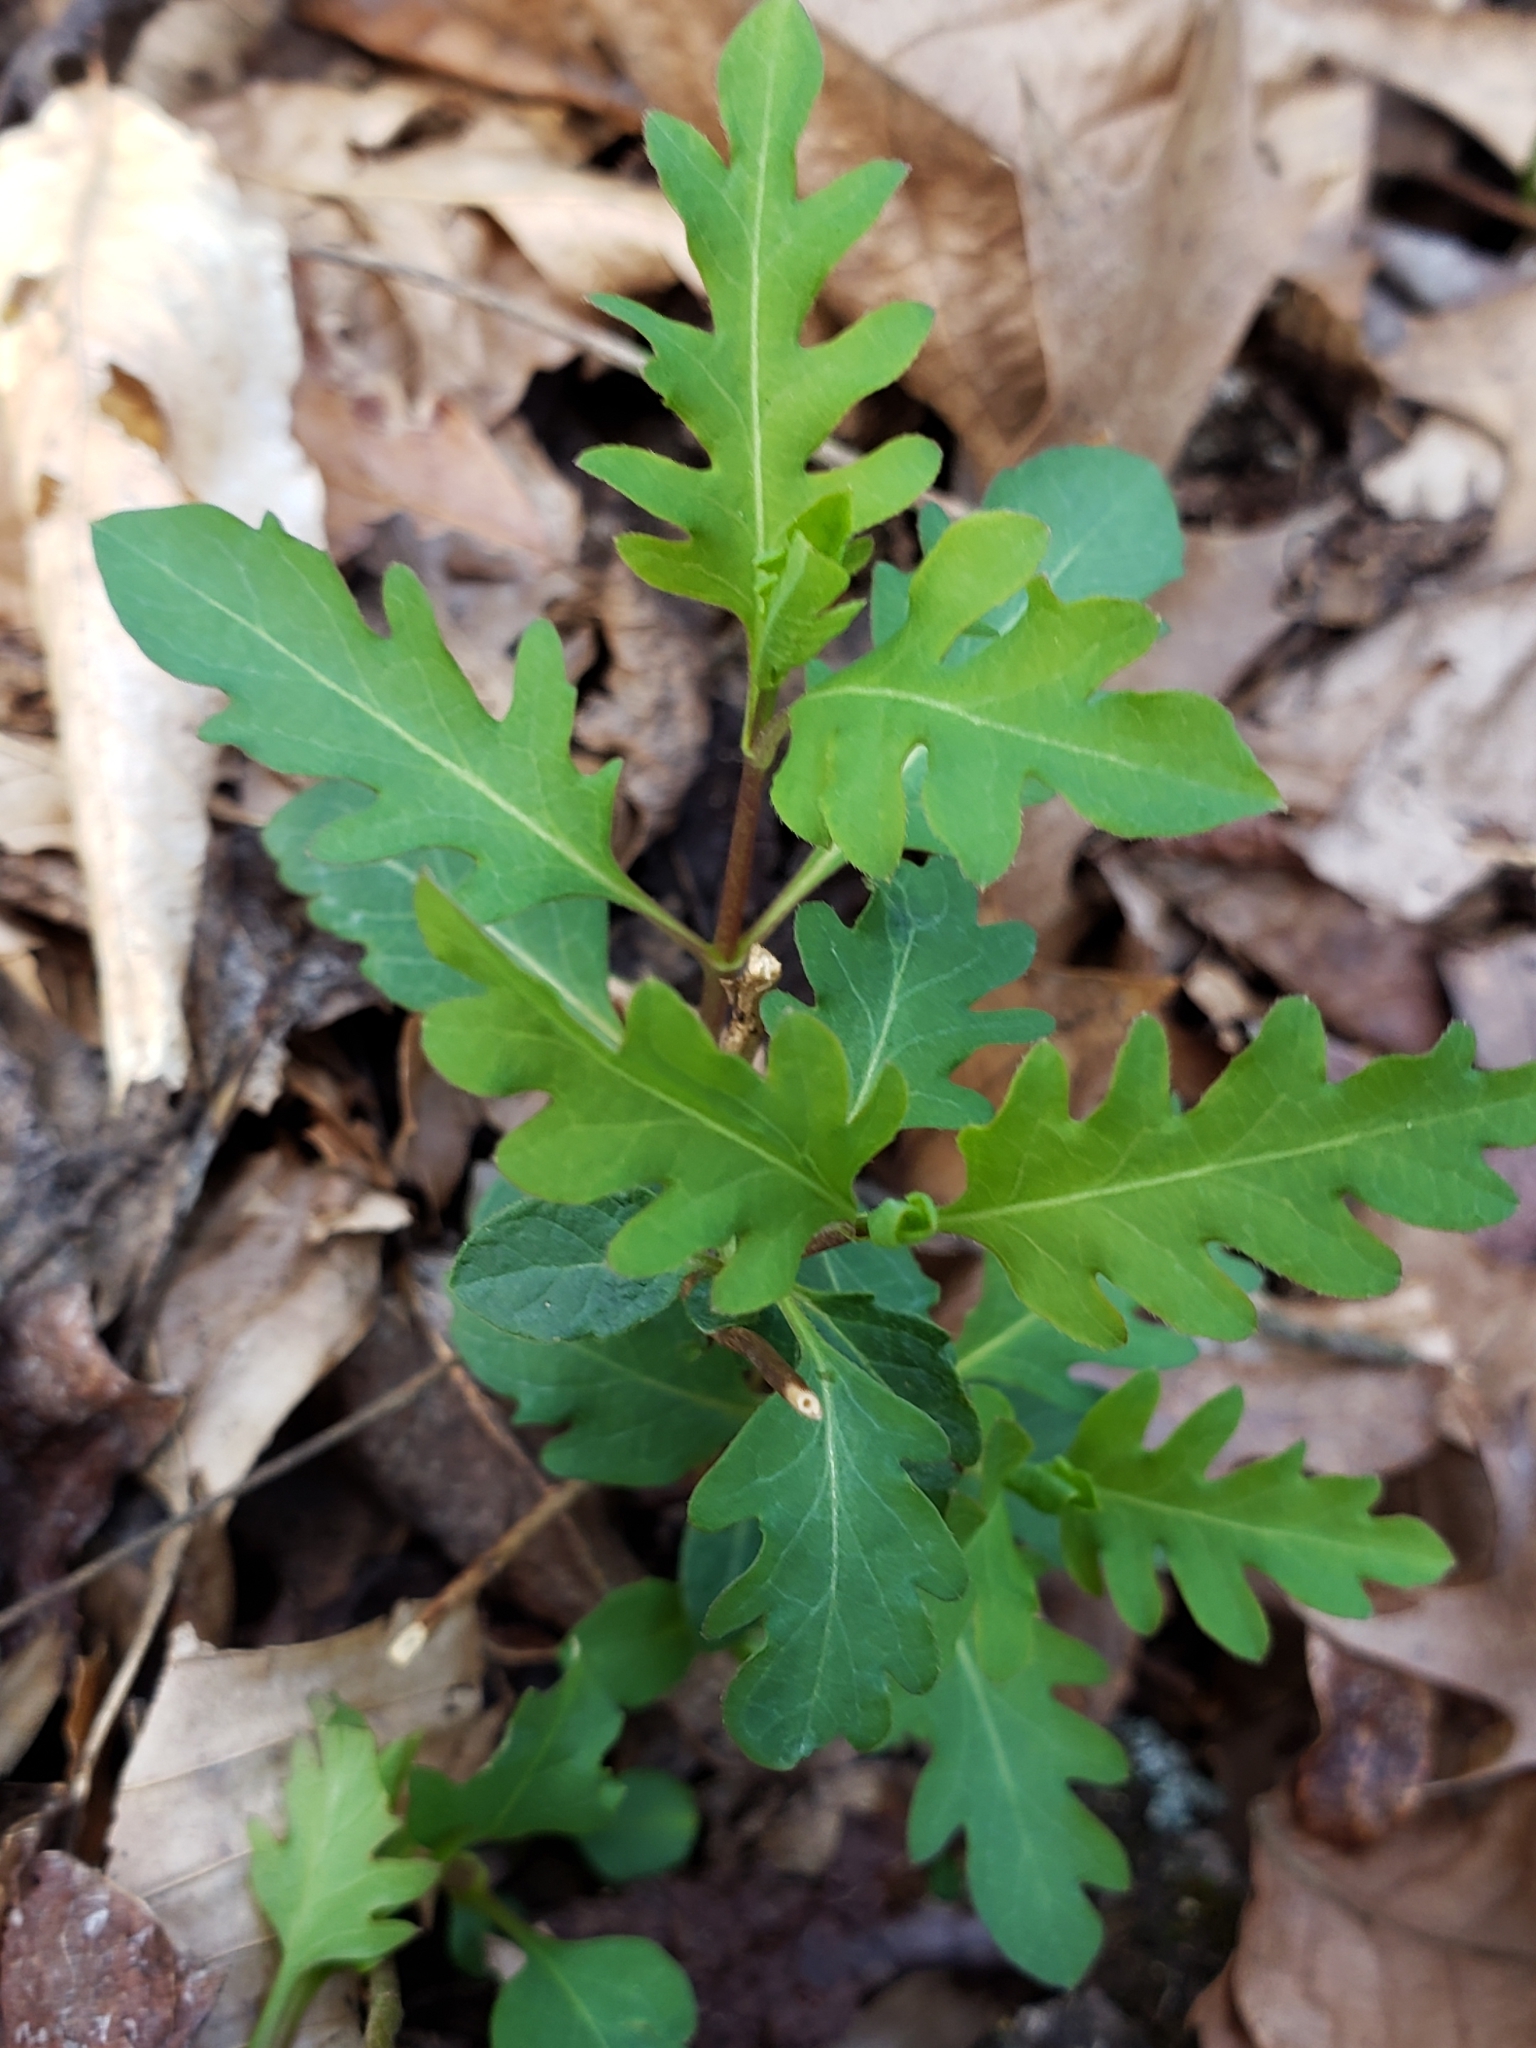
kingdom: Plantae
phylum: Tracheophyta
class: Magnoliopsida
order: Dipsacales
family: Caprifoliaceae
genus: Lonicera
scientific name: Lonicera japonica
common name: Japanese honeysuckle
